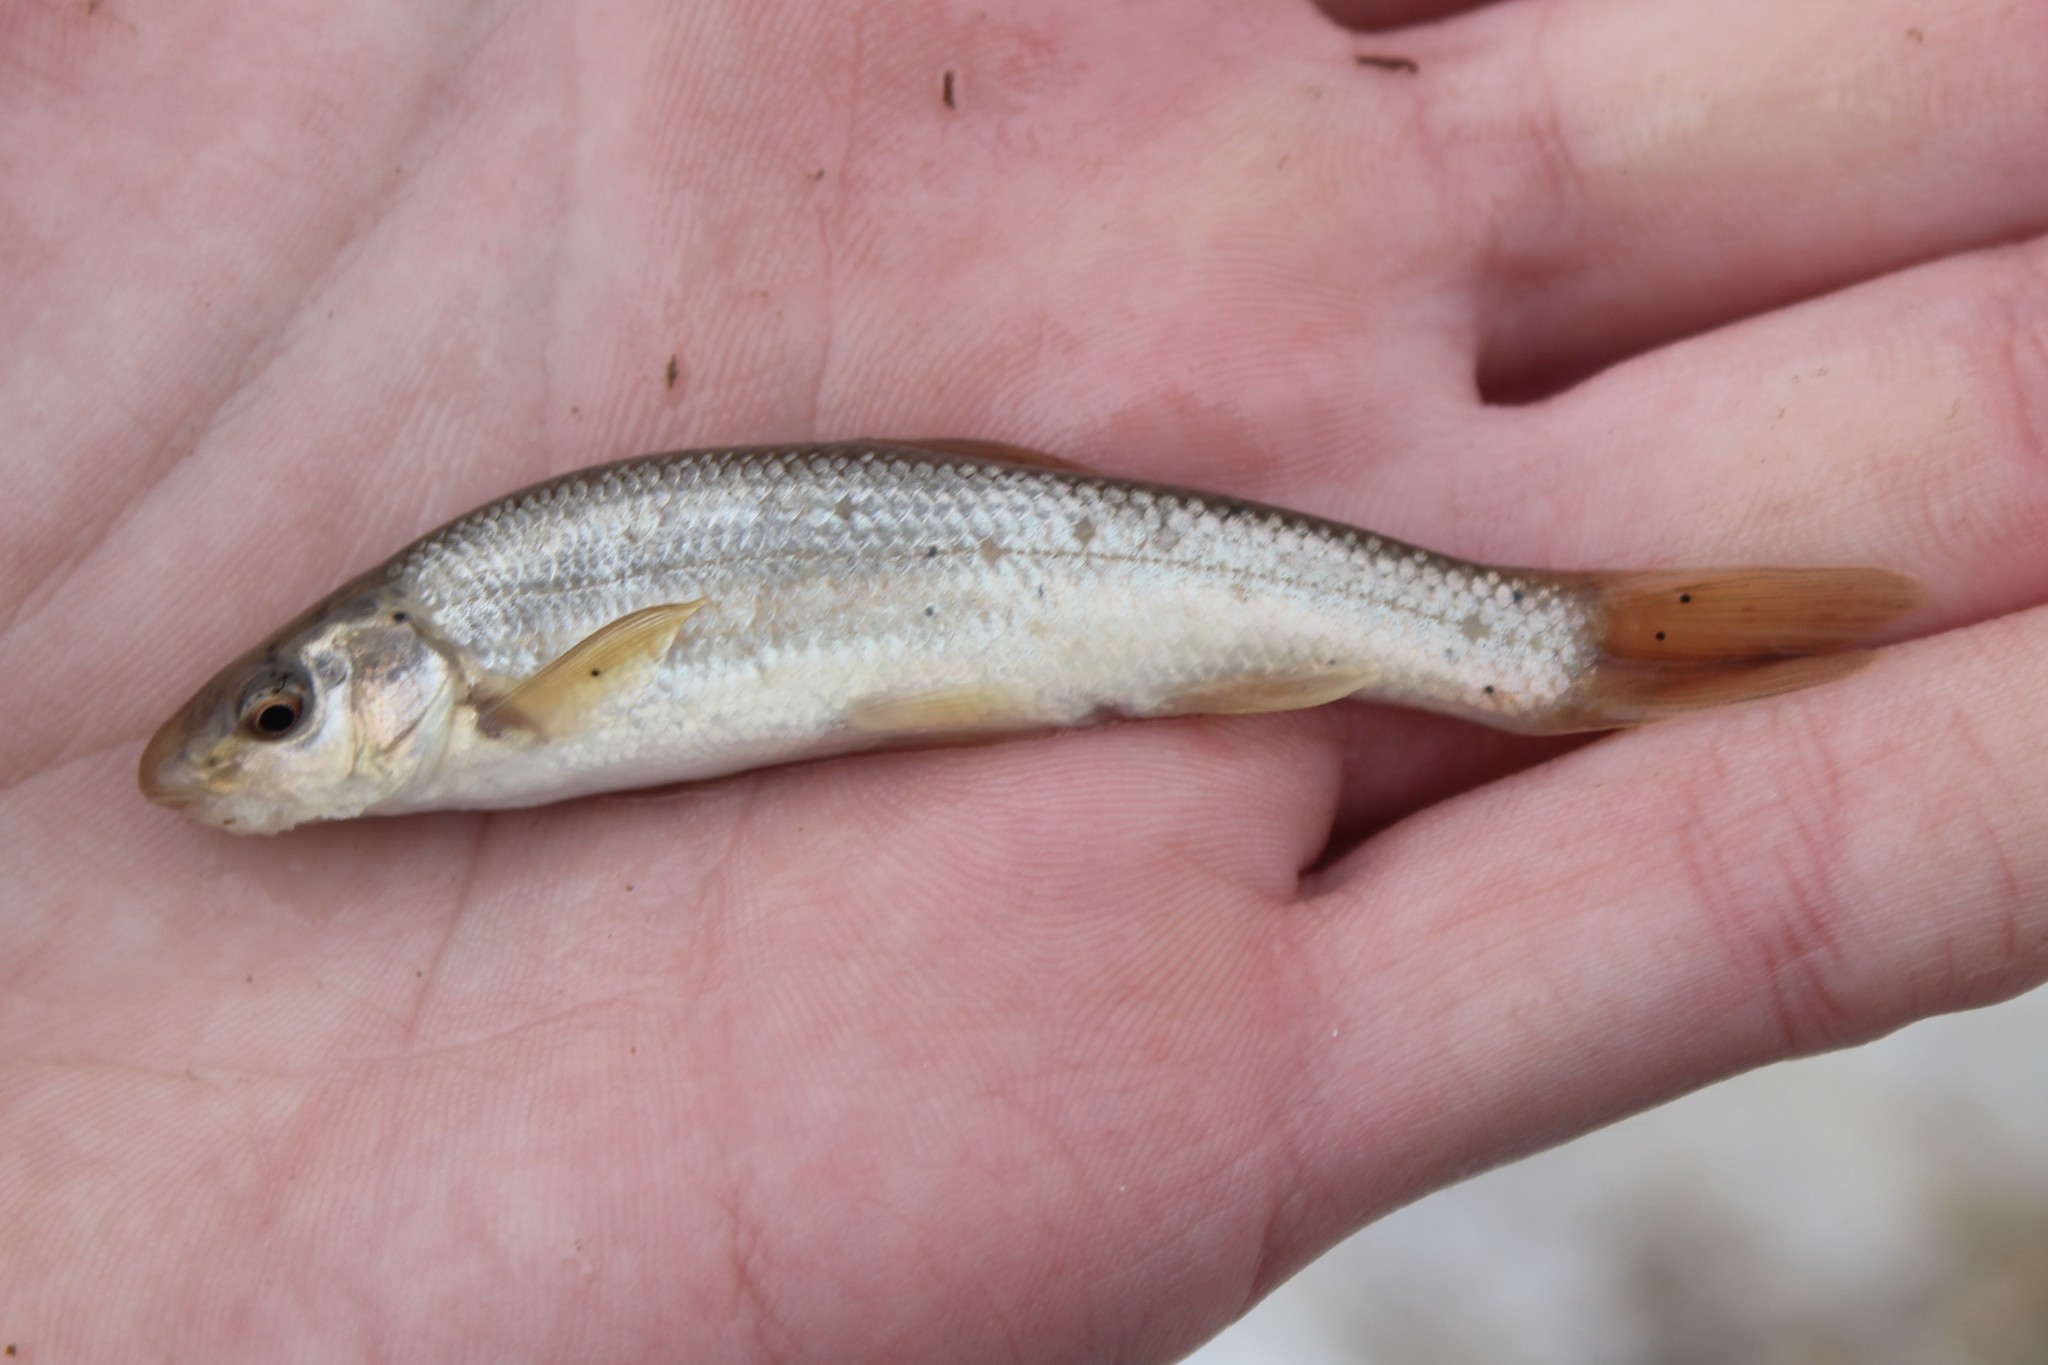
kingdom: Animalia
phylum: Chordata
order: Cypriniformes
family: Cyprinidae
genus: Campostoma
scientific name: Campostoma anomalum
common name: Central stoneroller
